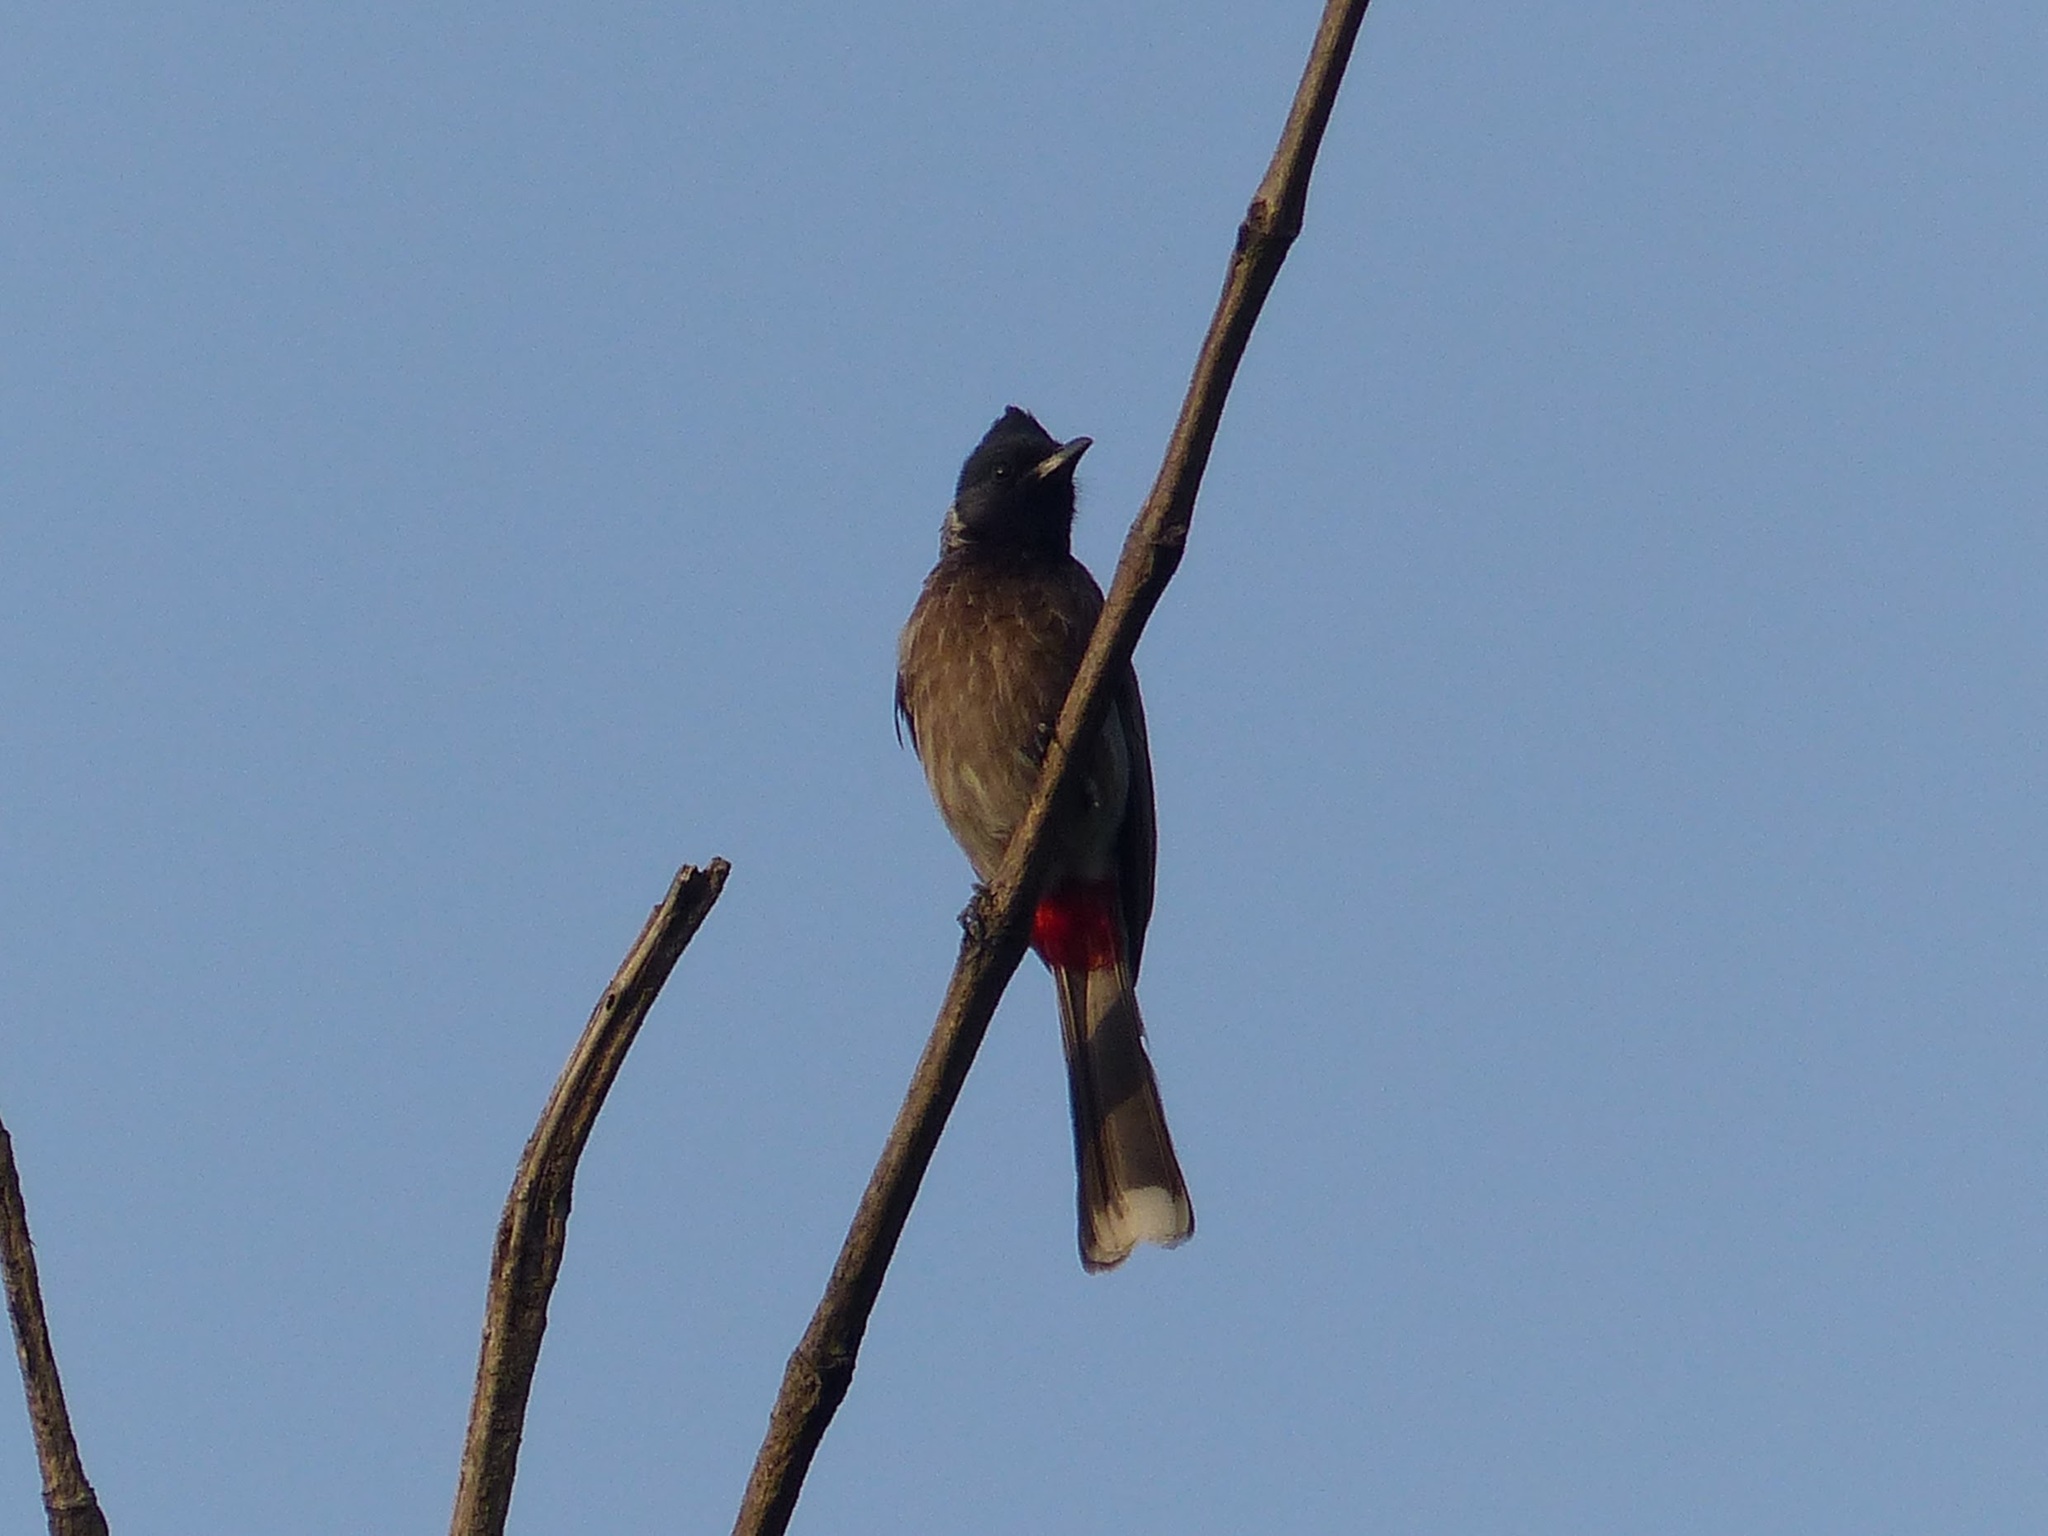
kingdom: Animalia
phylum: Chordata
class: Aves
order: Passeriformes
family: Pycnonotidae
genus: Pycnonotus
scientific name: Pycnonotus cafer
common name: Red-vented bulbul
